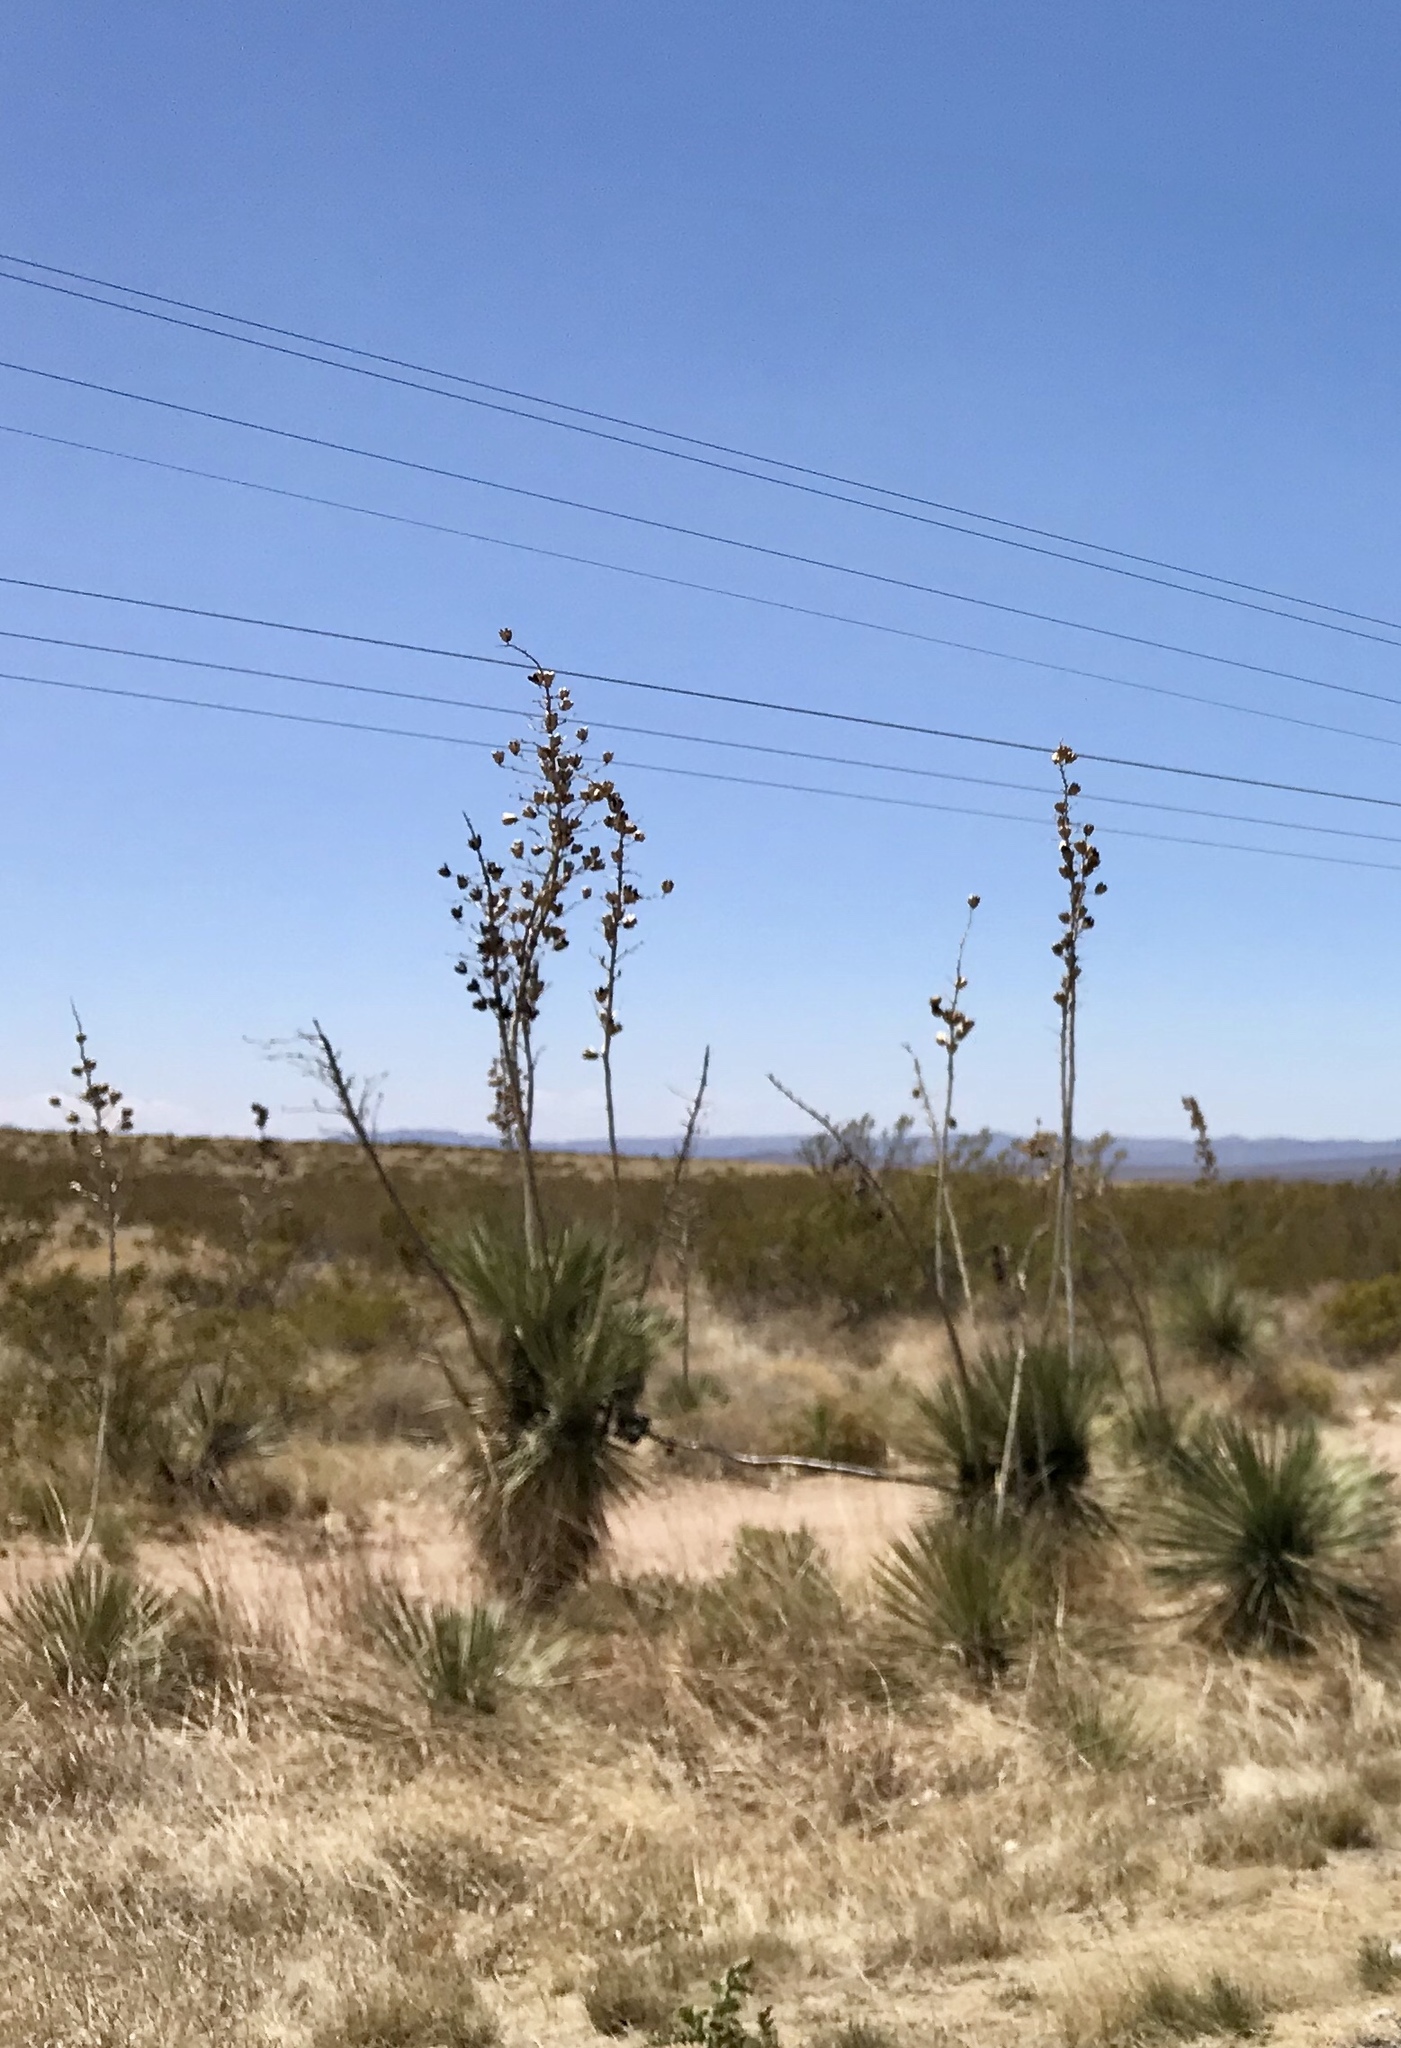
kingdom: Plantae
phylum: Tracheophyta
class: Liliopsida
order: Asparagales
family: Asparagaceae
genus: Yucca
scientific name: Yucca elata
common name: Palmella
